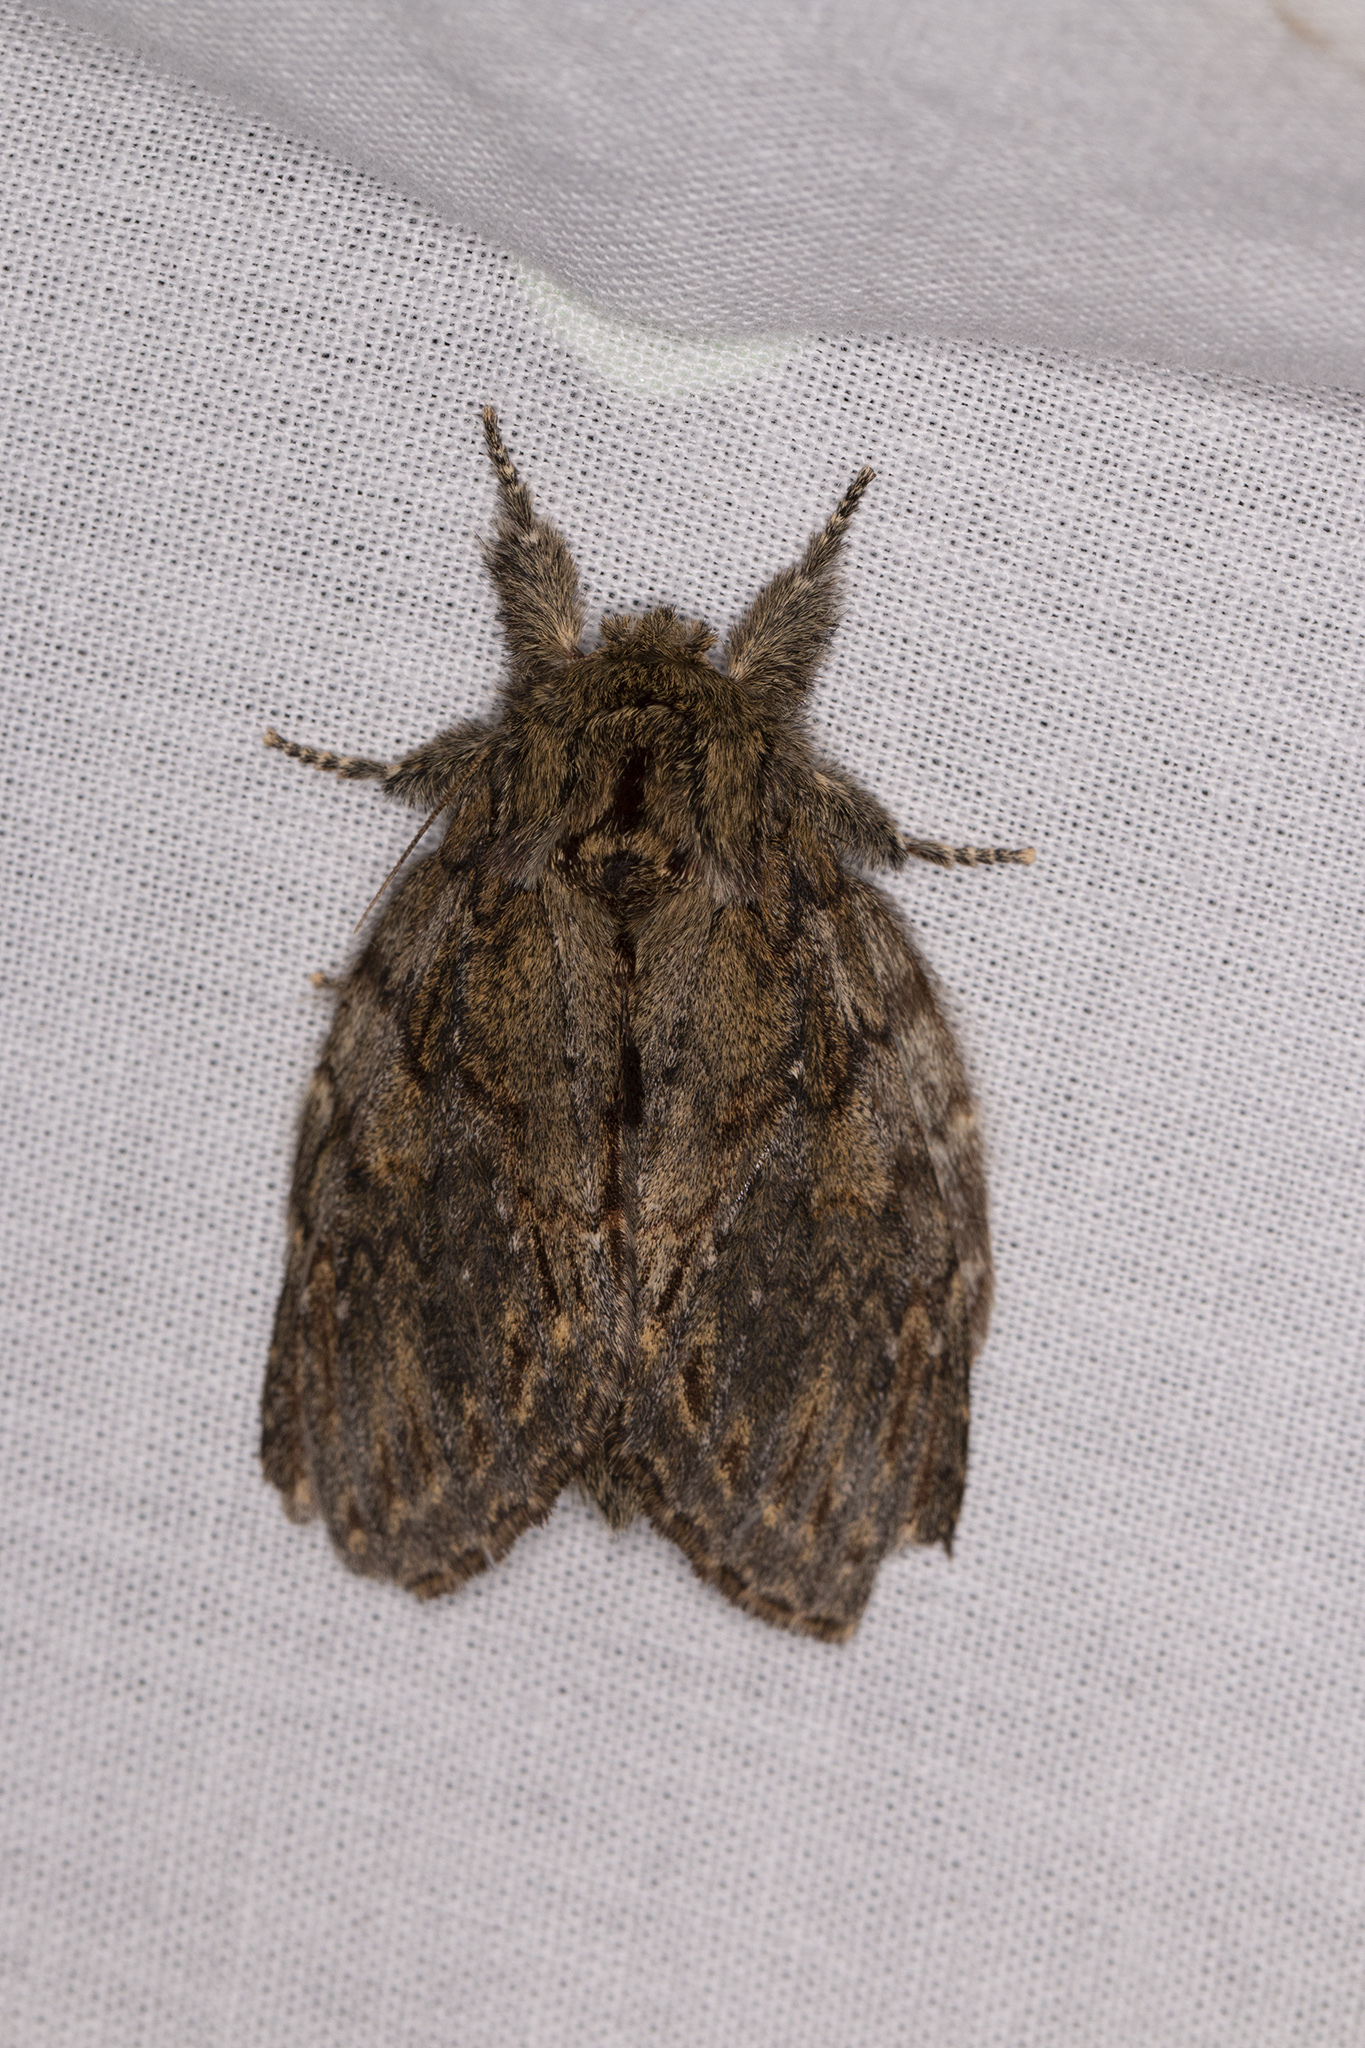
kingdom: Animalia
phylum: Arthropoda
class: Insecta
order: Lepidoptera
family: Notodontidae
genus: Peridea
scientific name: Peridea anceps
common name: Great prominent
